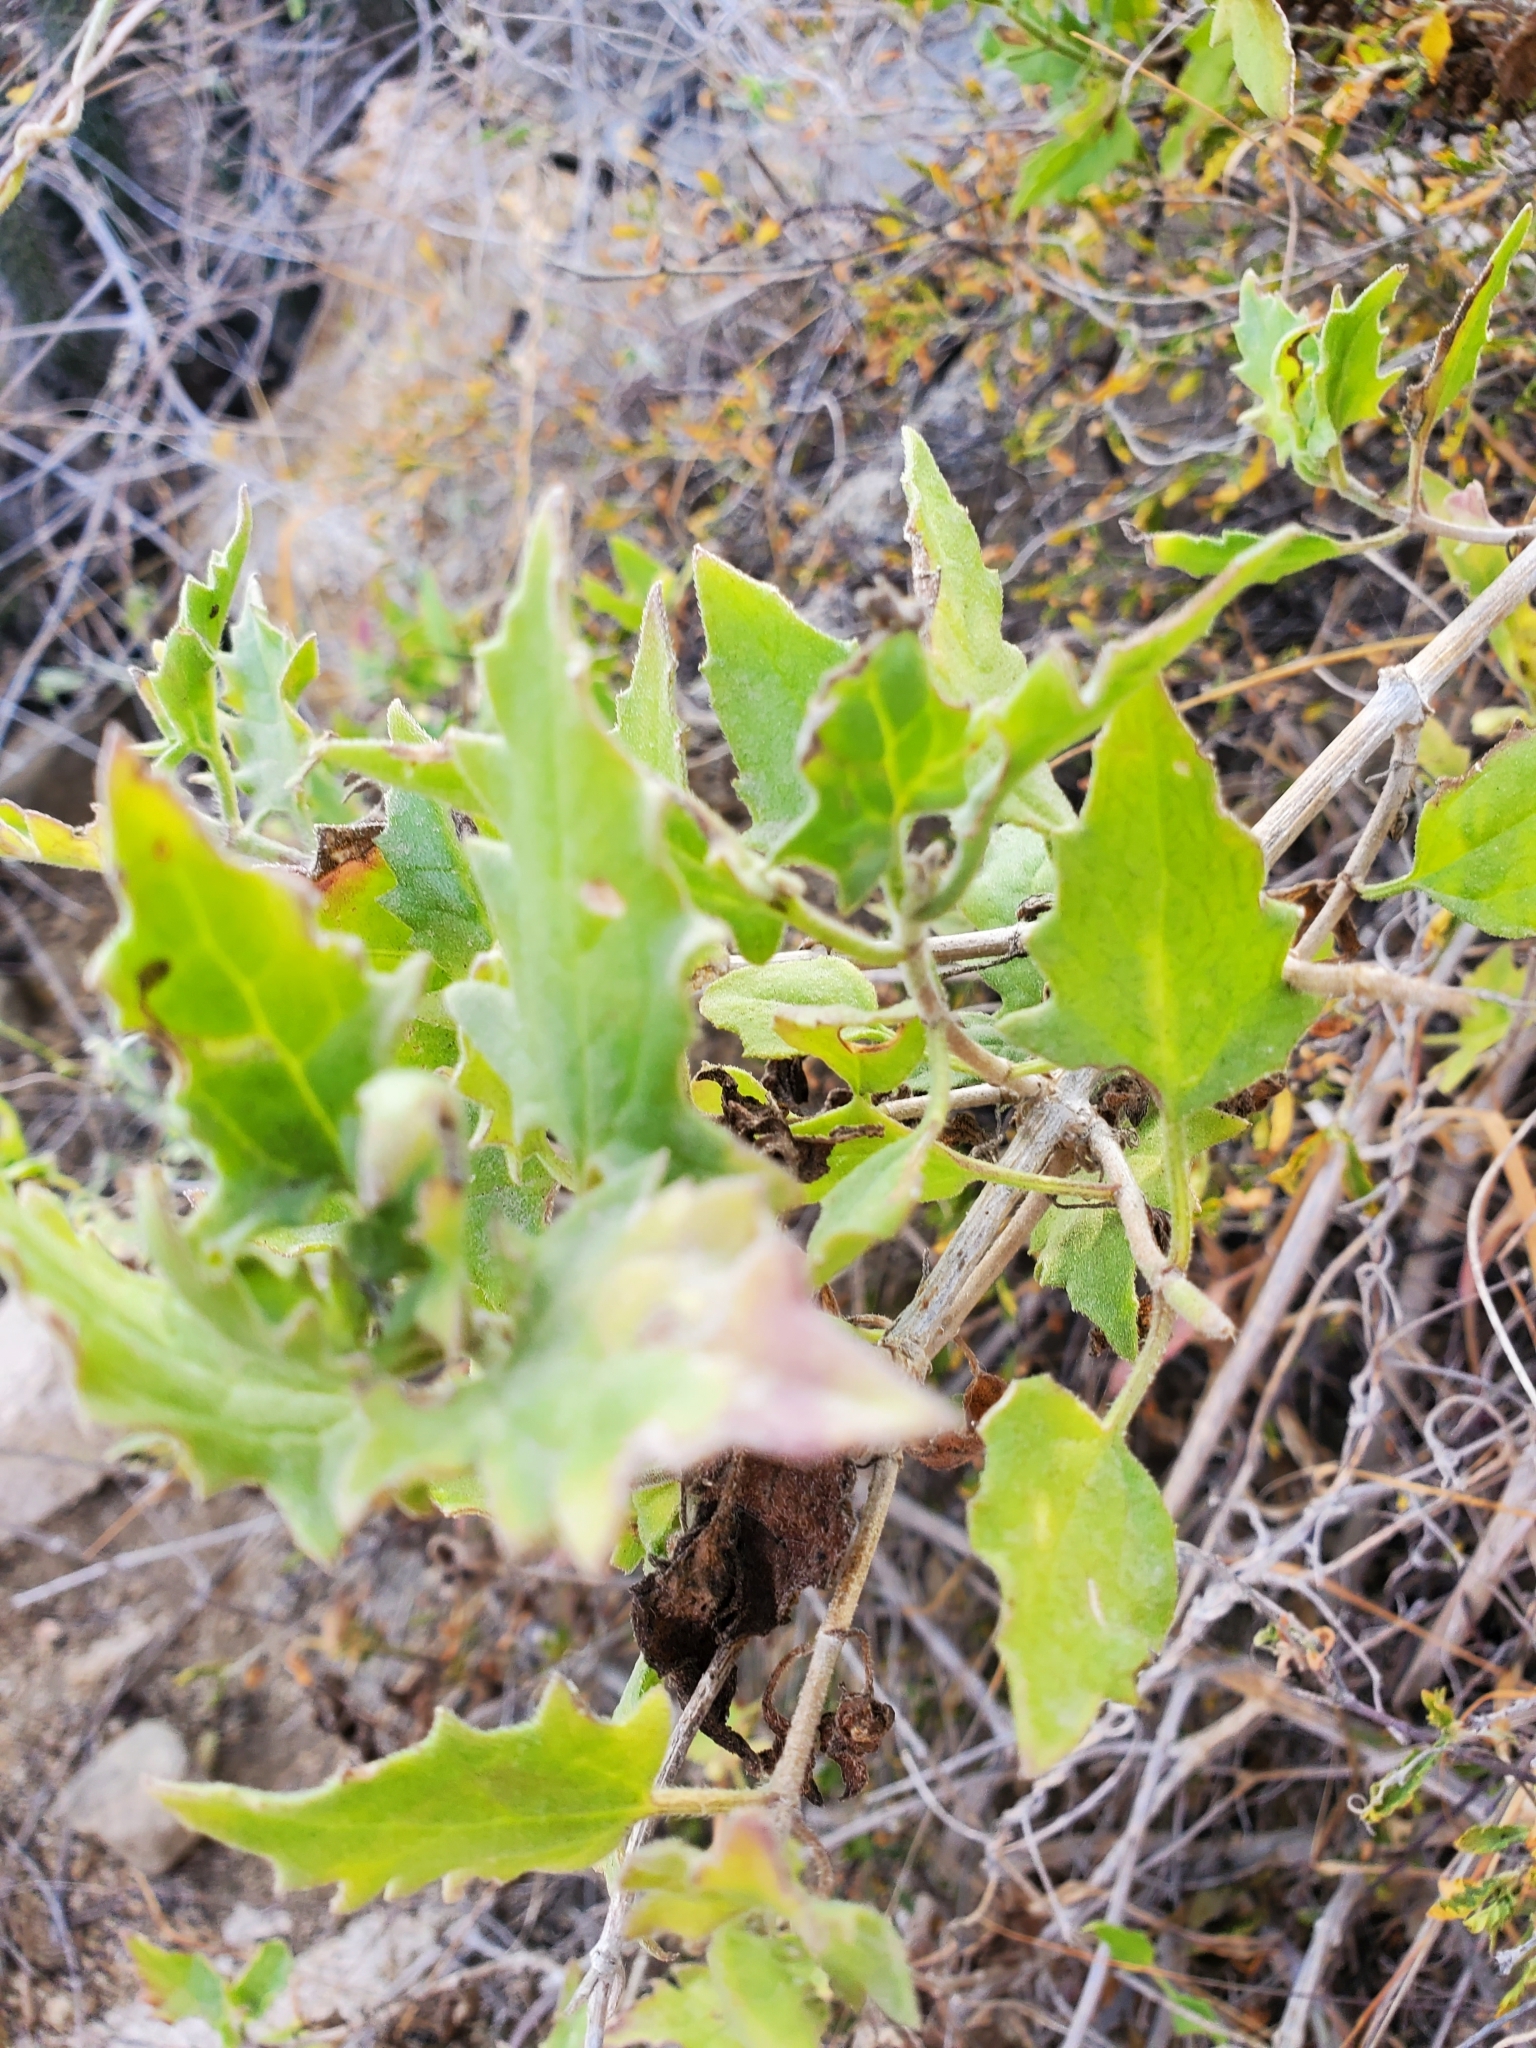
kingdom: Plantae
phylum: Tracheophyta
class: Magnoliopsida
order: Asterales
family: Asteraceae
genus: Bebbia
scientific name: Bebbia atriplicifolia
